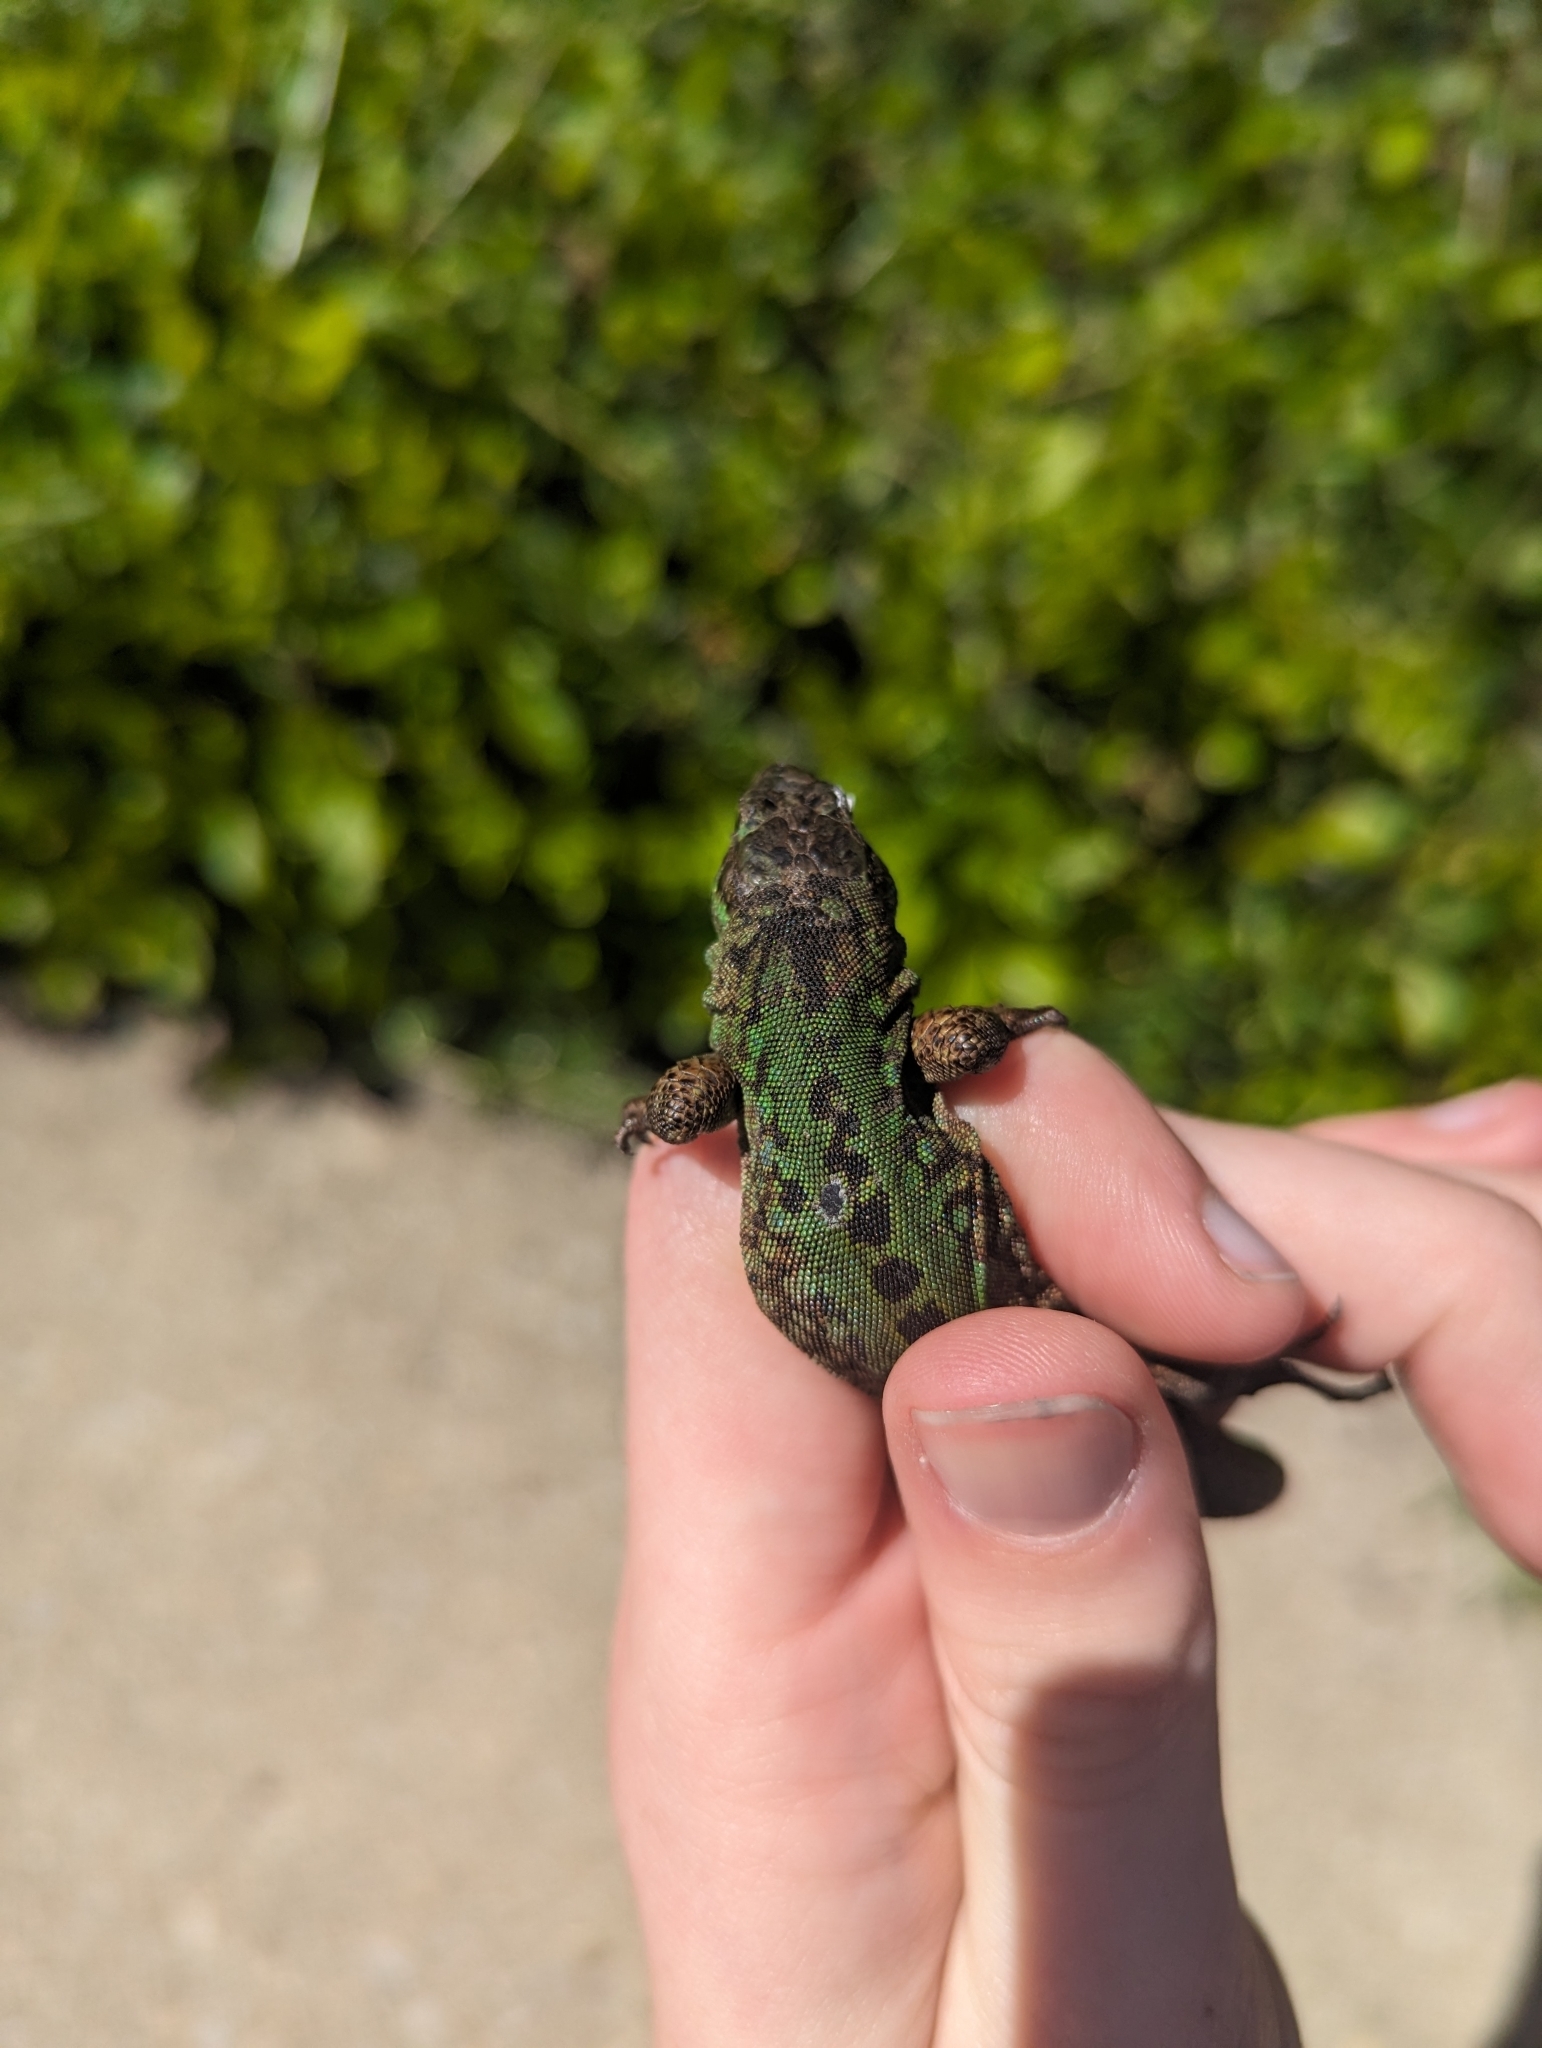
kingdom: Animalia
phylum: Chordata
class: Squamata
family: Lacertidae
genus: Podarcis
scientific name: Podarcis siculus
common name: Italian wall lizard
